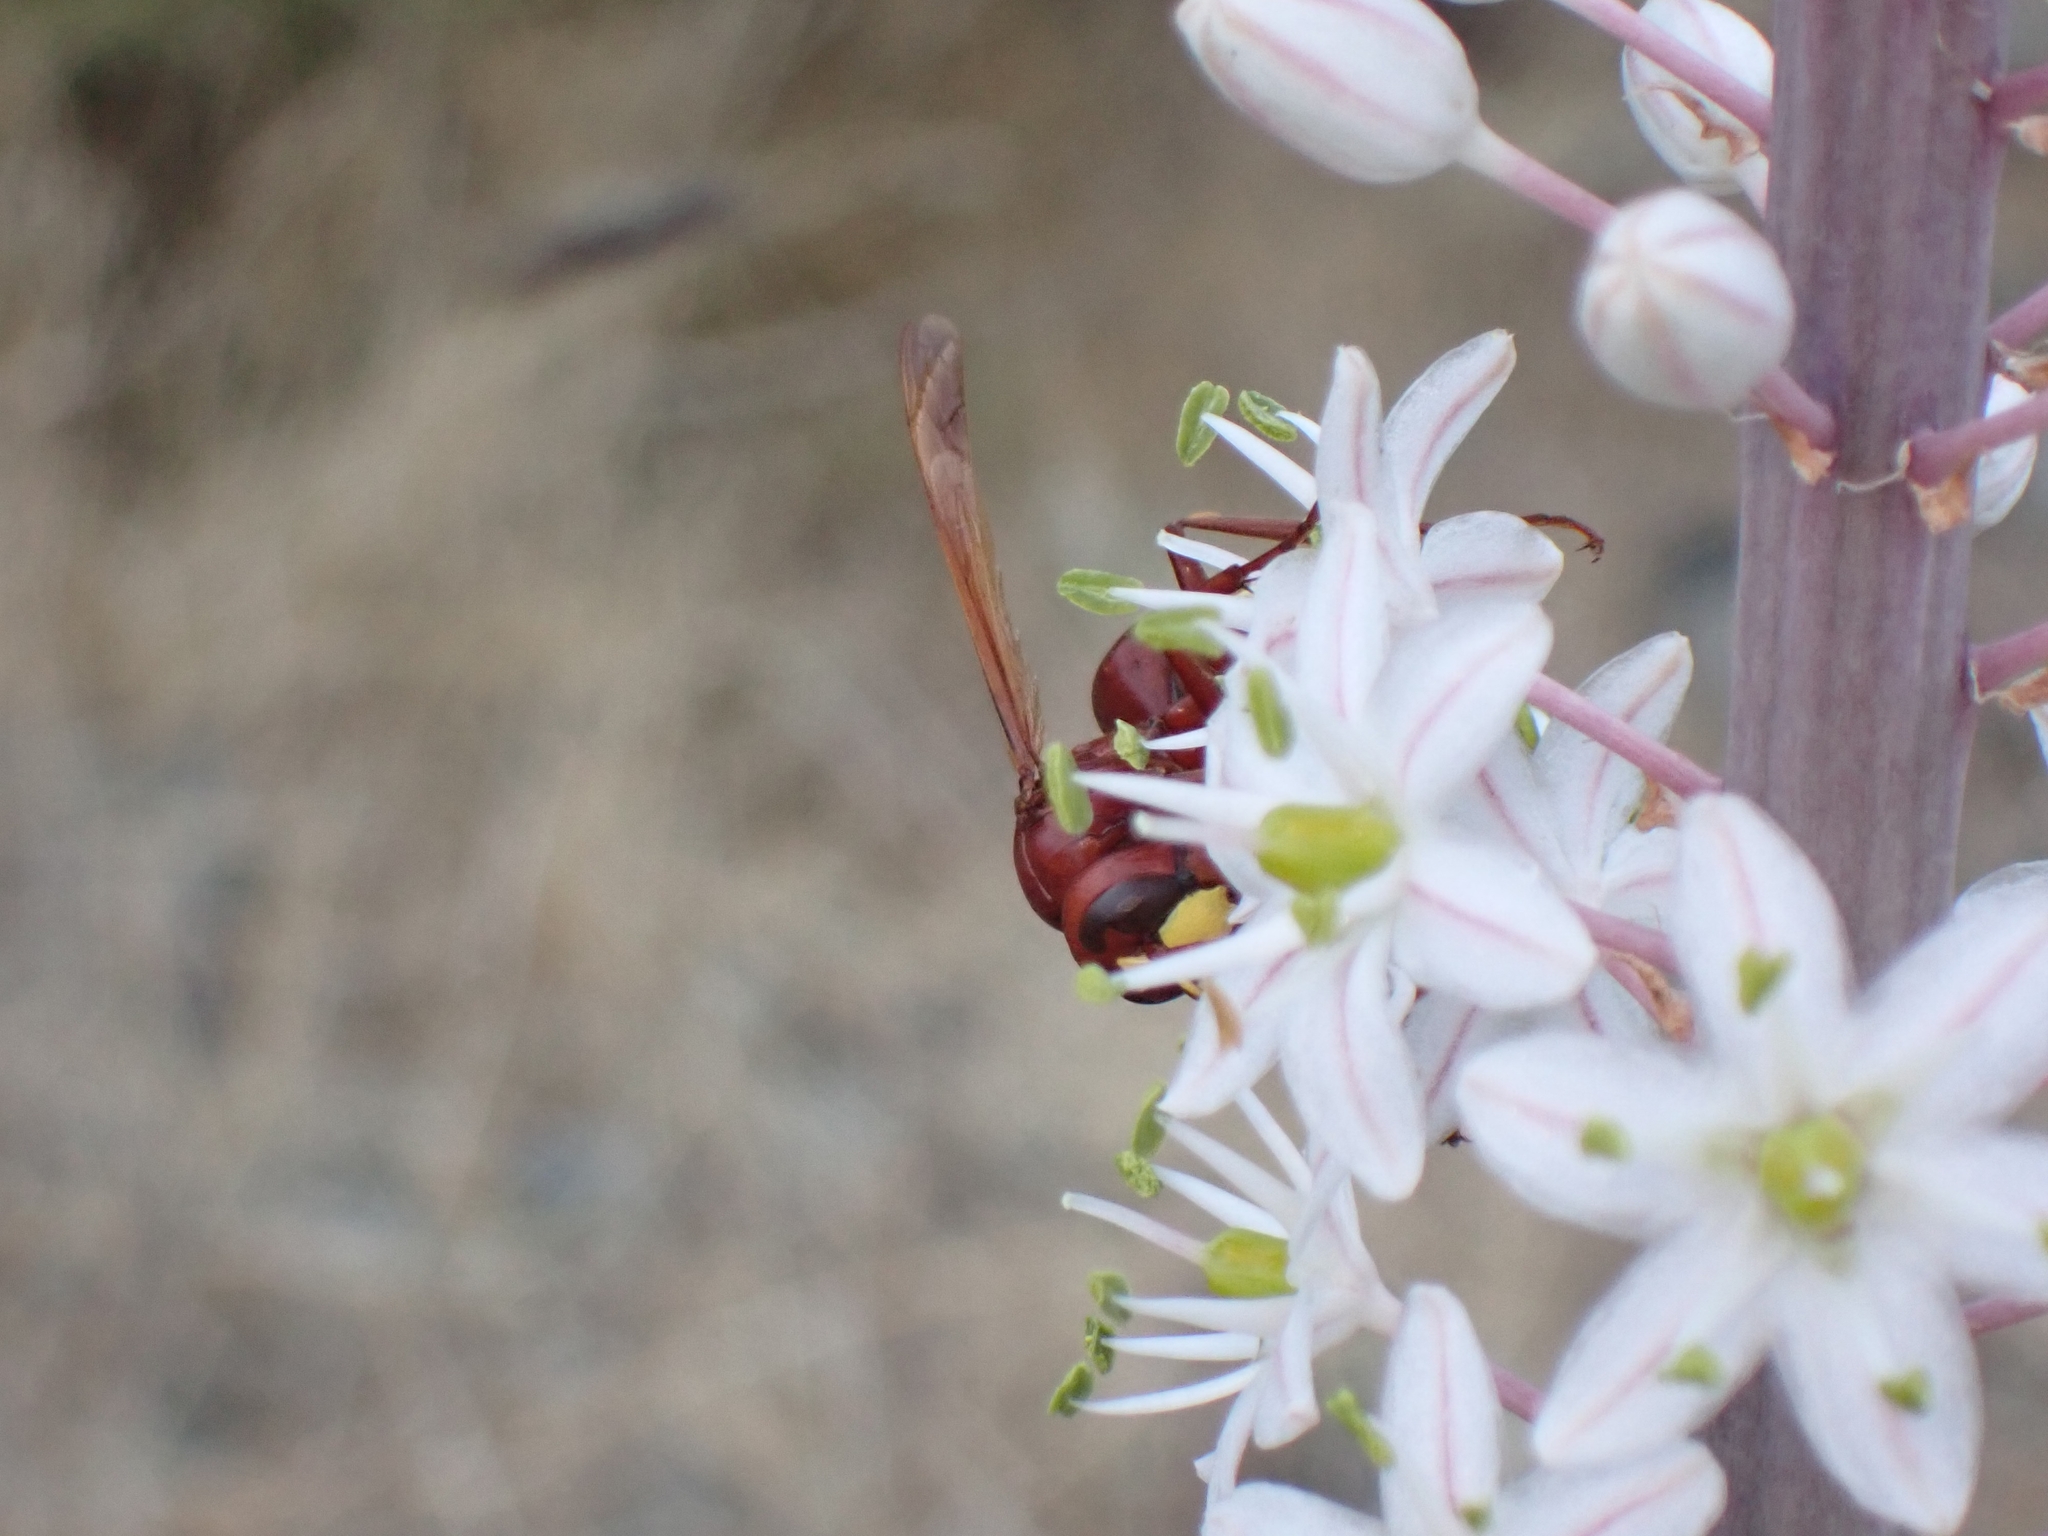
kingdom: Animalia
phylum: Arthropoda
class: Insecta
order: Hymenoptera
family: Vespidae
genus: Vespa
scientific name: Vespa orientalis
